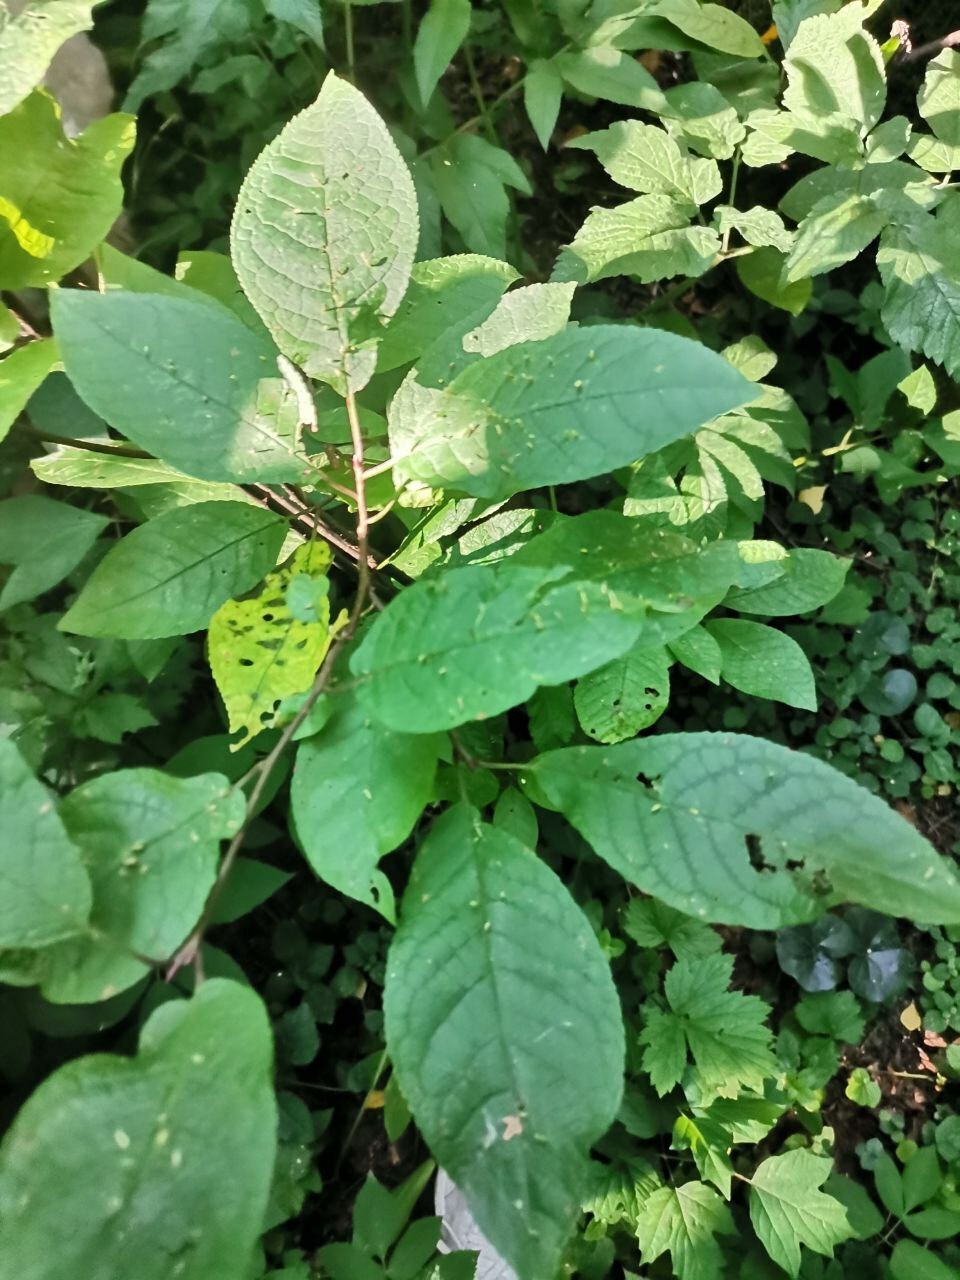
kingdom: Plantae
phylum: Tracheophyta
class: Magnoliopsida
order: Rosales
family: Rosaceae
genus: Prunus
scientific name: Prunus padus
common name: Bird cherry
